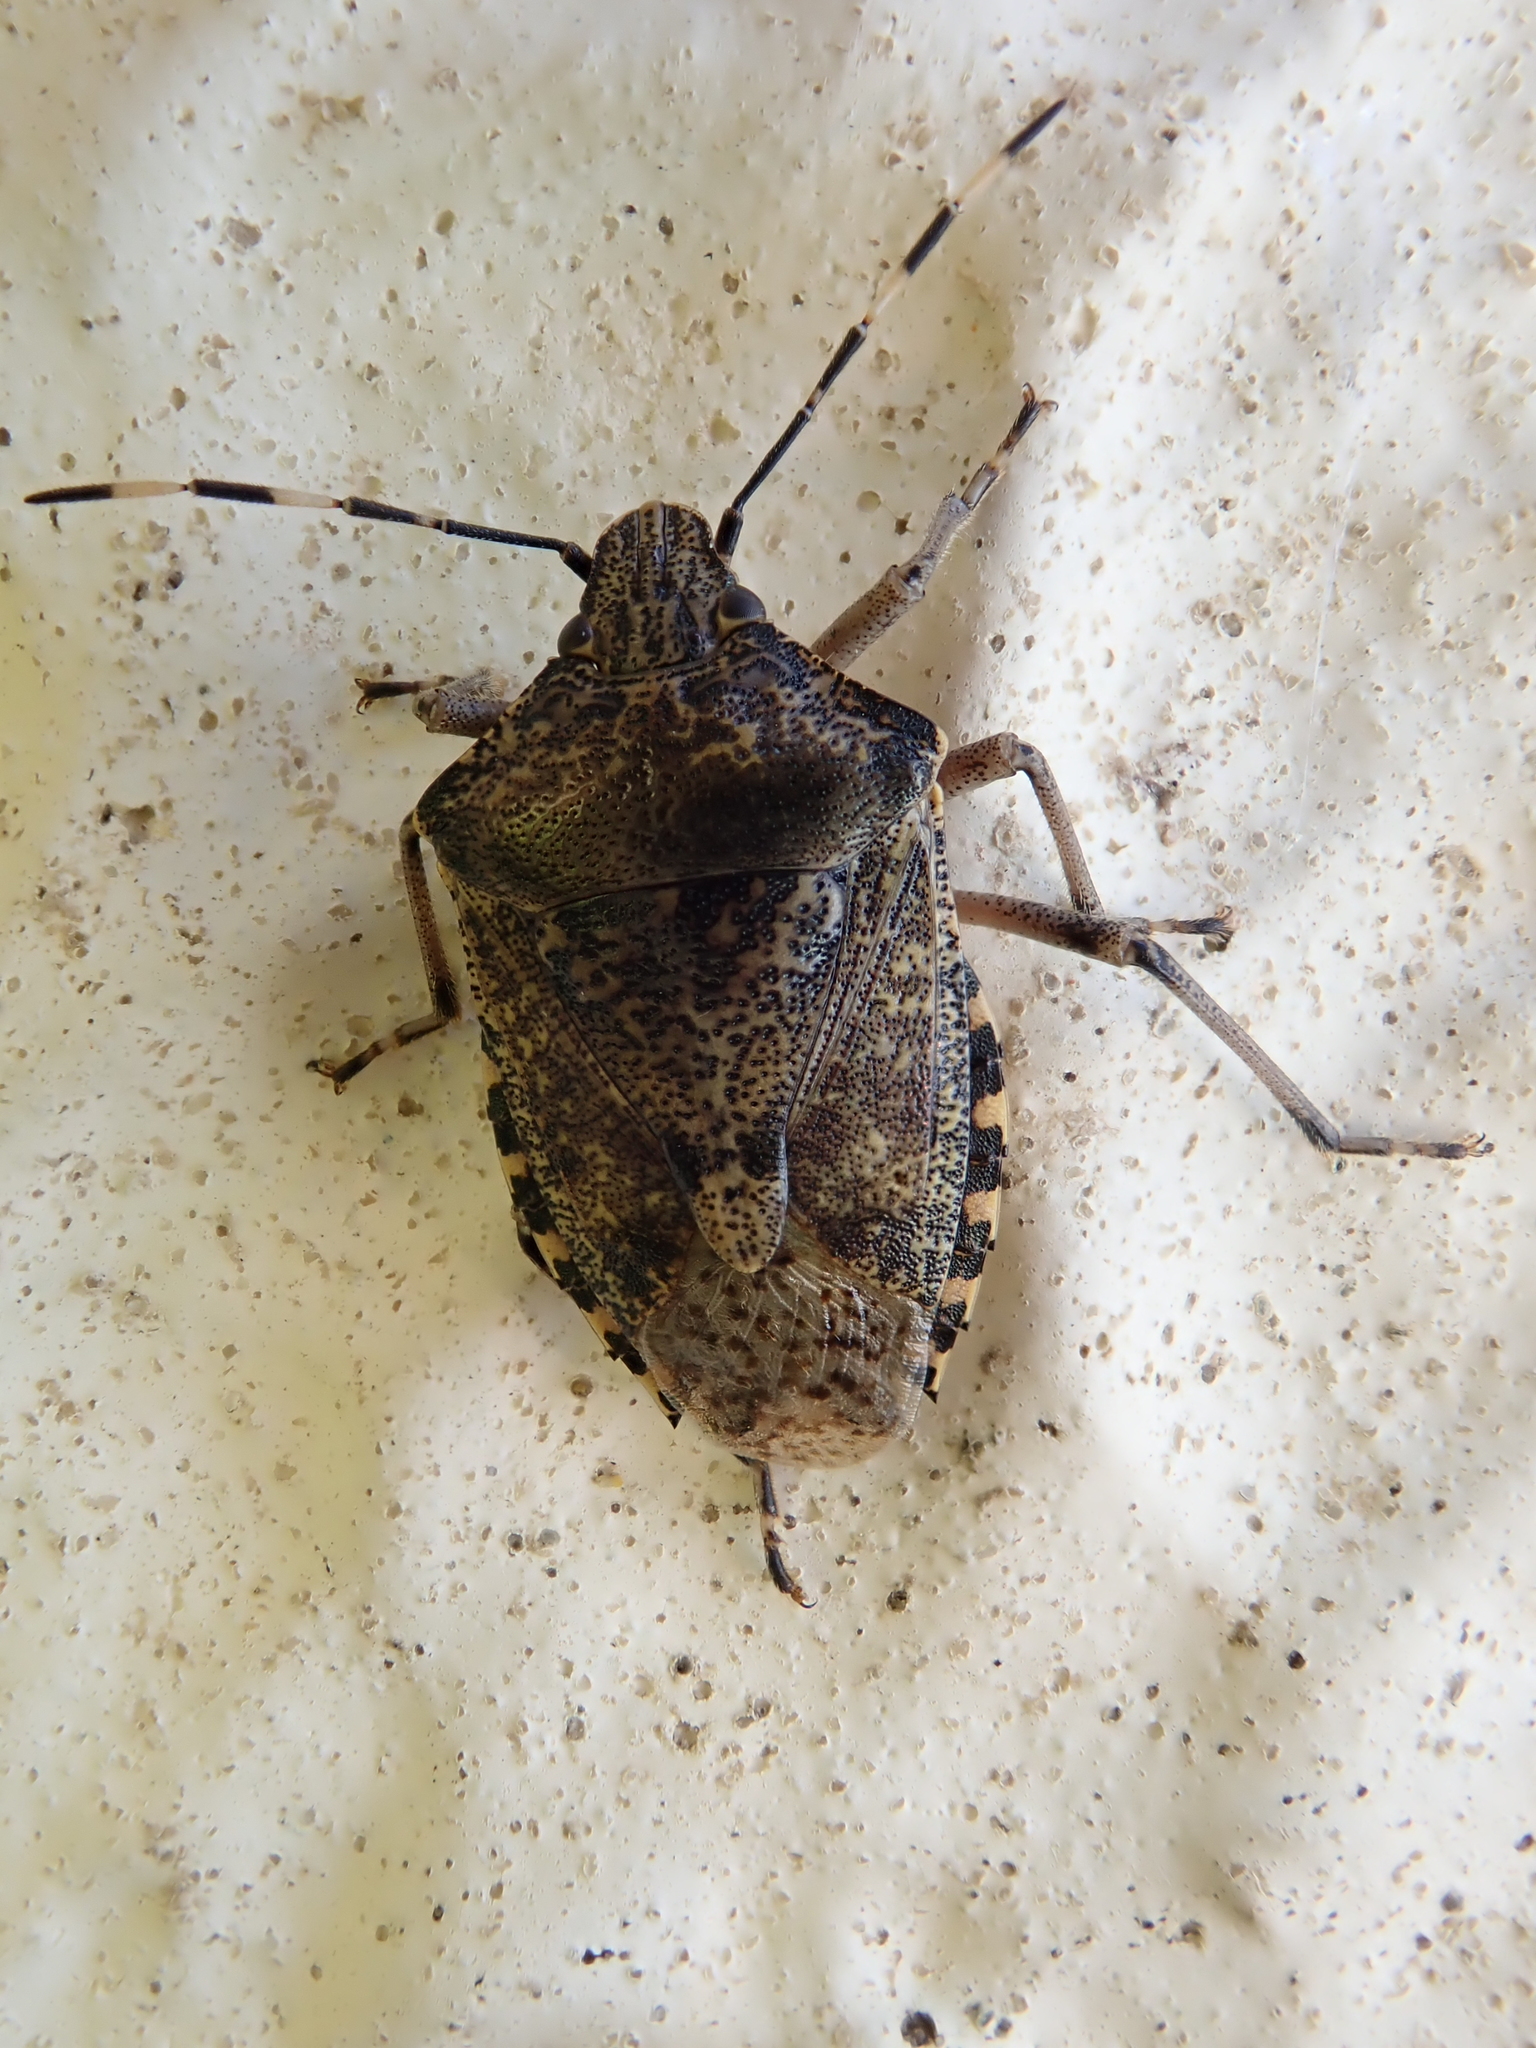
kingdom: Animalia
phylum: Arthropoda
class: Insecta
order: Hemiptera
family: Pentatomidae
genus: Rhaphigaster
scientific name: Rhaphigaster nebulosa
